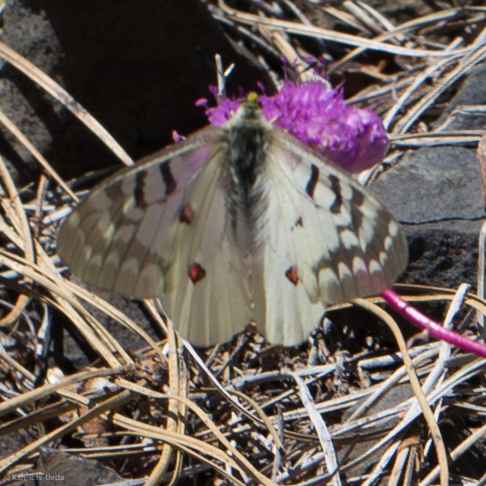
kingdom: Animalia
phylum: Arthropoda
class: Insecta
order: Lepidoptera
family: Papilionidae
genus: Parnassius
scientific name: Parnassius clodius
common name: American apollo
